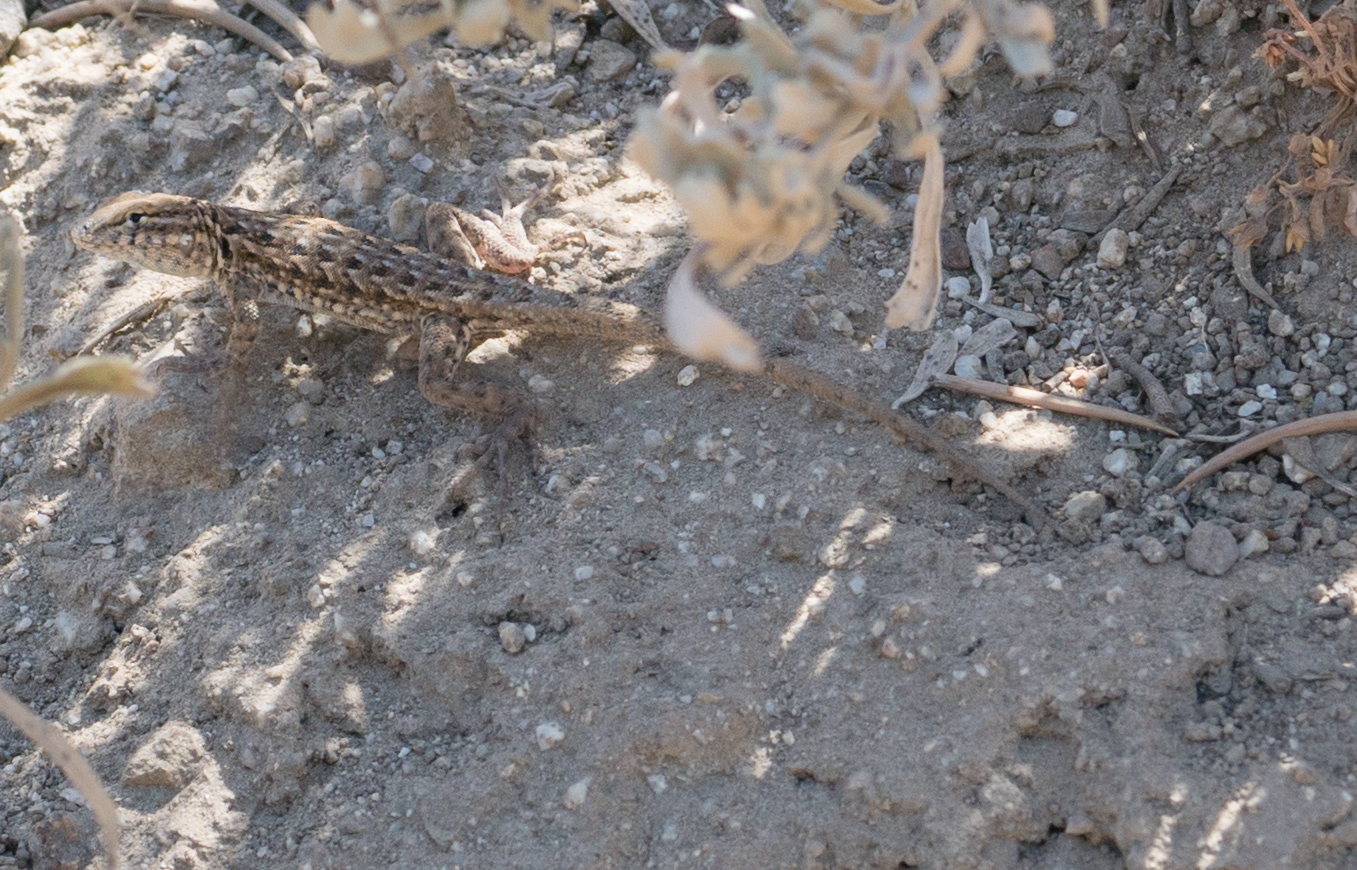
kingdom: Animalia
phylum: Chordata
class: Squamata
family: Phrynosomatidae
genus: Uta
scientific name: Uta stansburiana
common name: Side-blotched lizard
